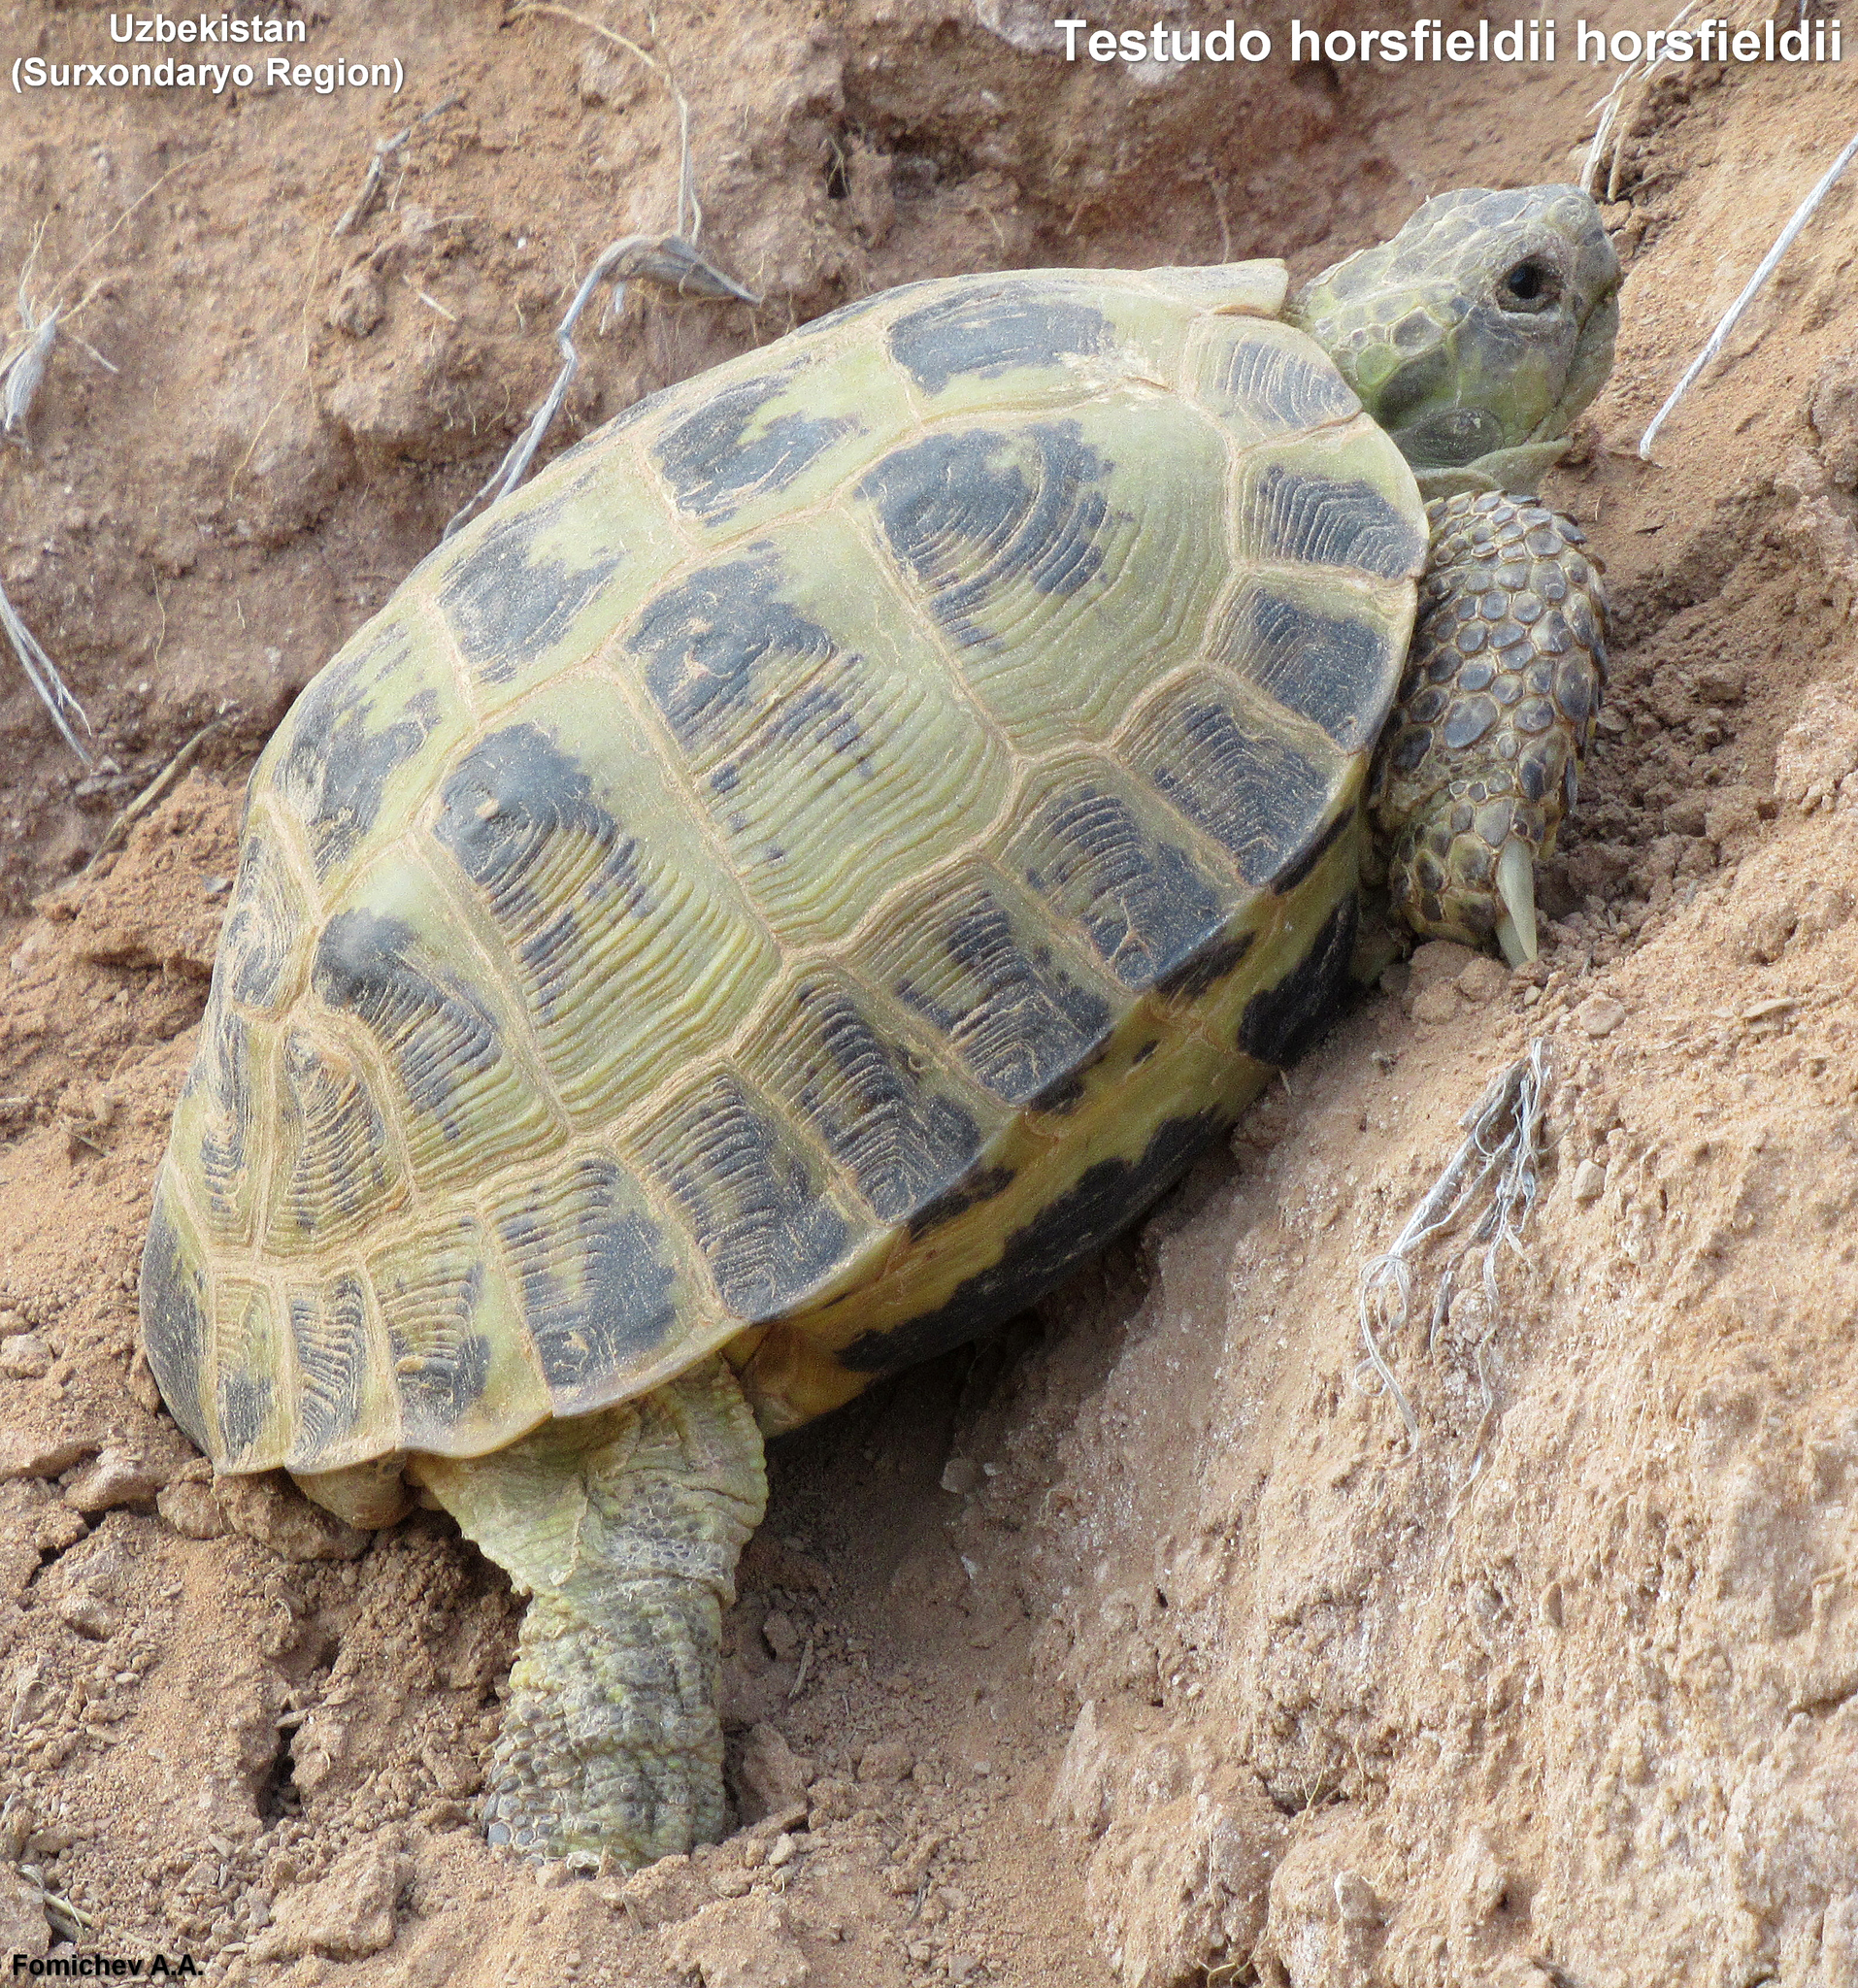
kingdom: Animalia
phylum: Chordata
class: Testudines
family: Testudinidae
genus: Testudo
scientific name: Testudo horsfieldii
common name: Central asia tortoise
